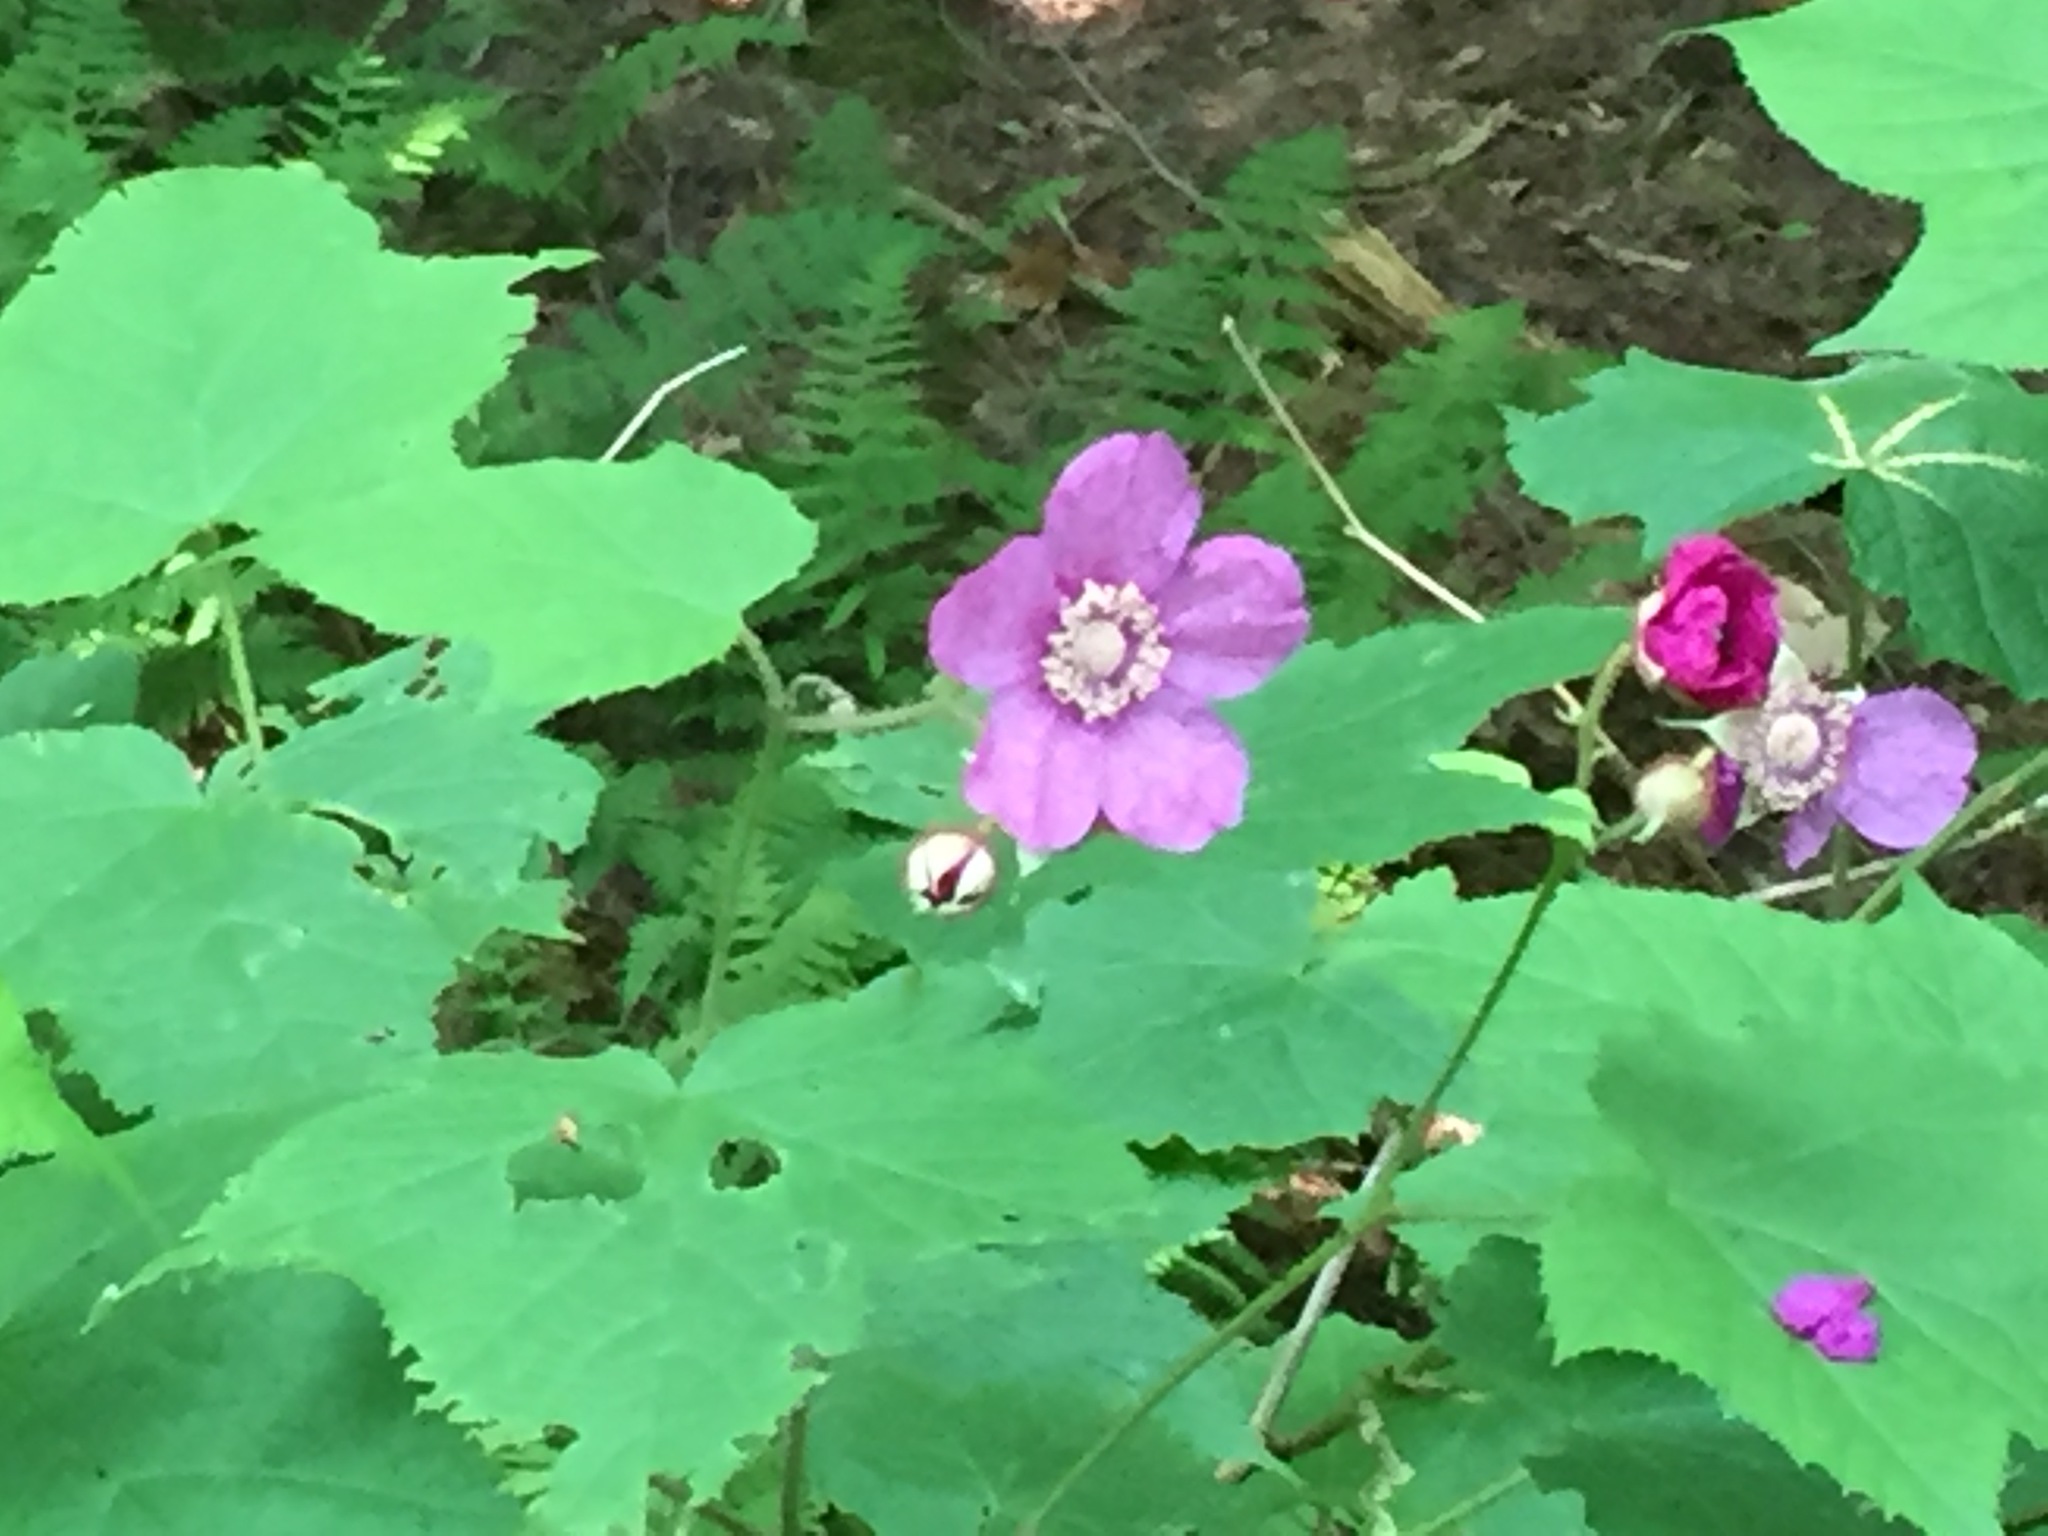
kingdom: Plantae
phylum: Tracheophyta
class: Magnoliopsida
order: Rosales
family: Rosaceae
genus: Rubus
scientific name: Rubus odoratus
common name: Purple-flowered raspberry
